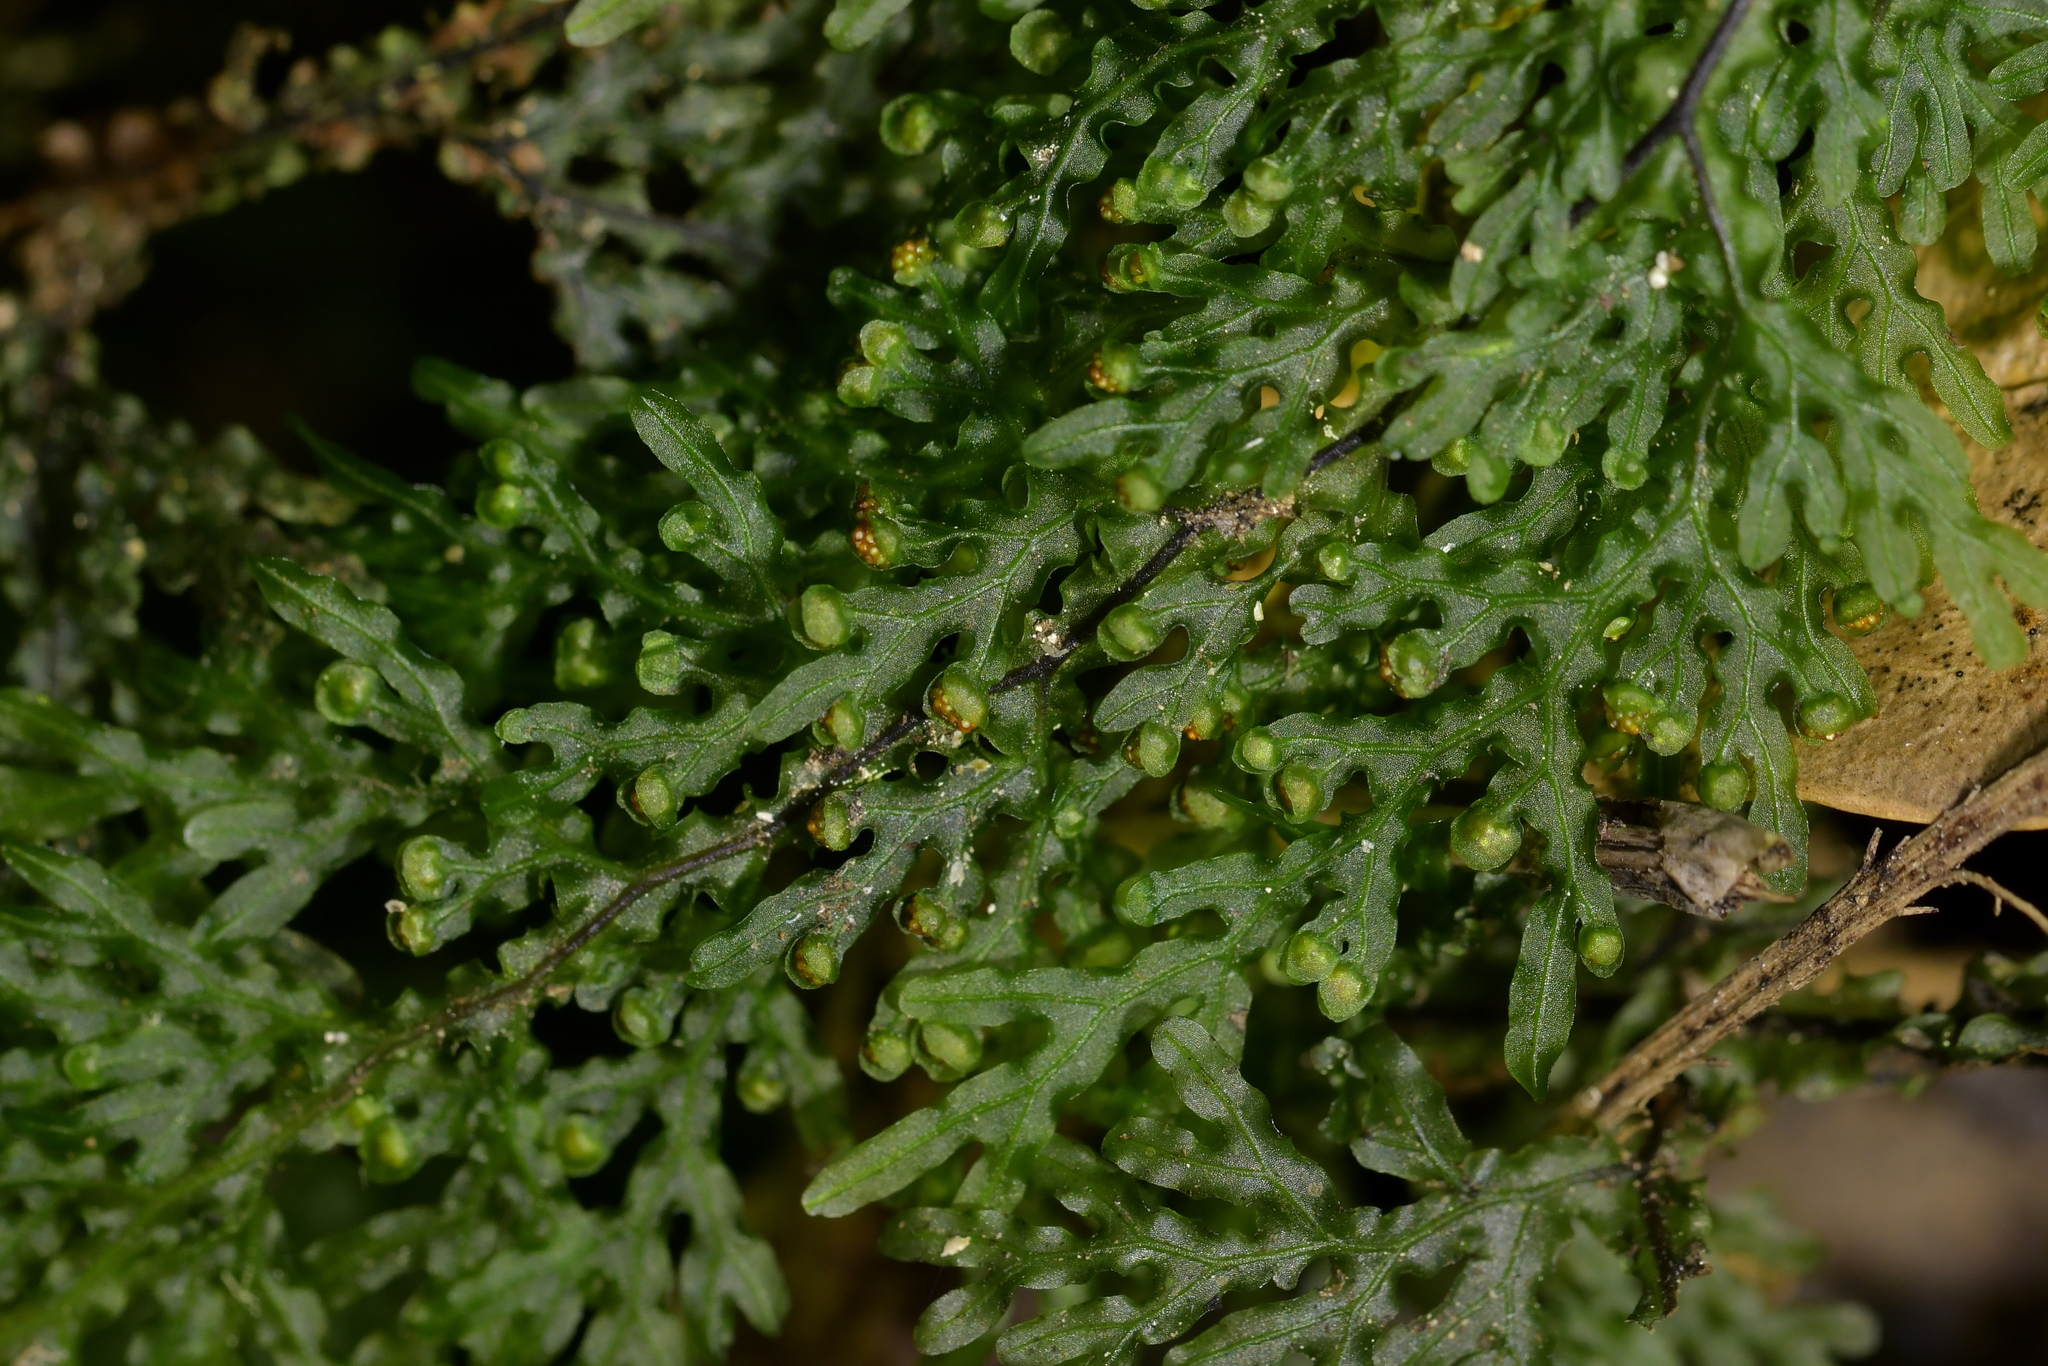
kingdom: Plantae
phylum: Tracheophyta
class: Polypodiopsida
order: Hymenophyllales
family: Hymenophyllaceae
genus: Hymenophyllum
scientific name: Hymenophyllum flexuosum
